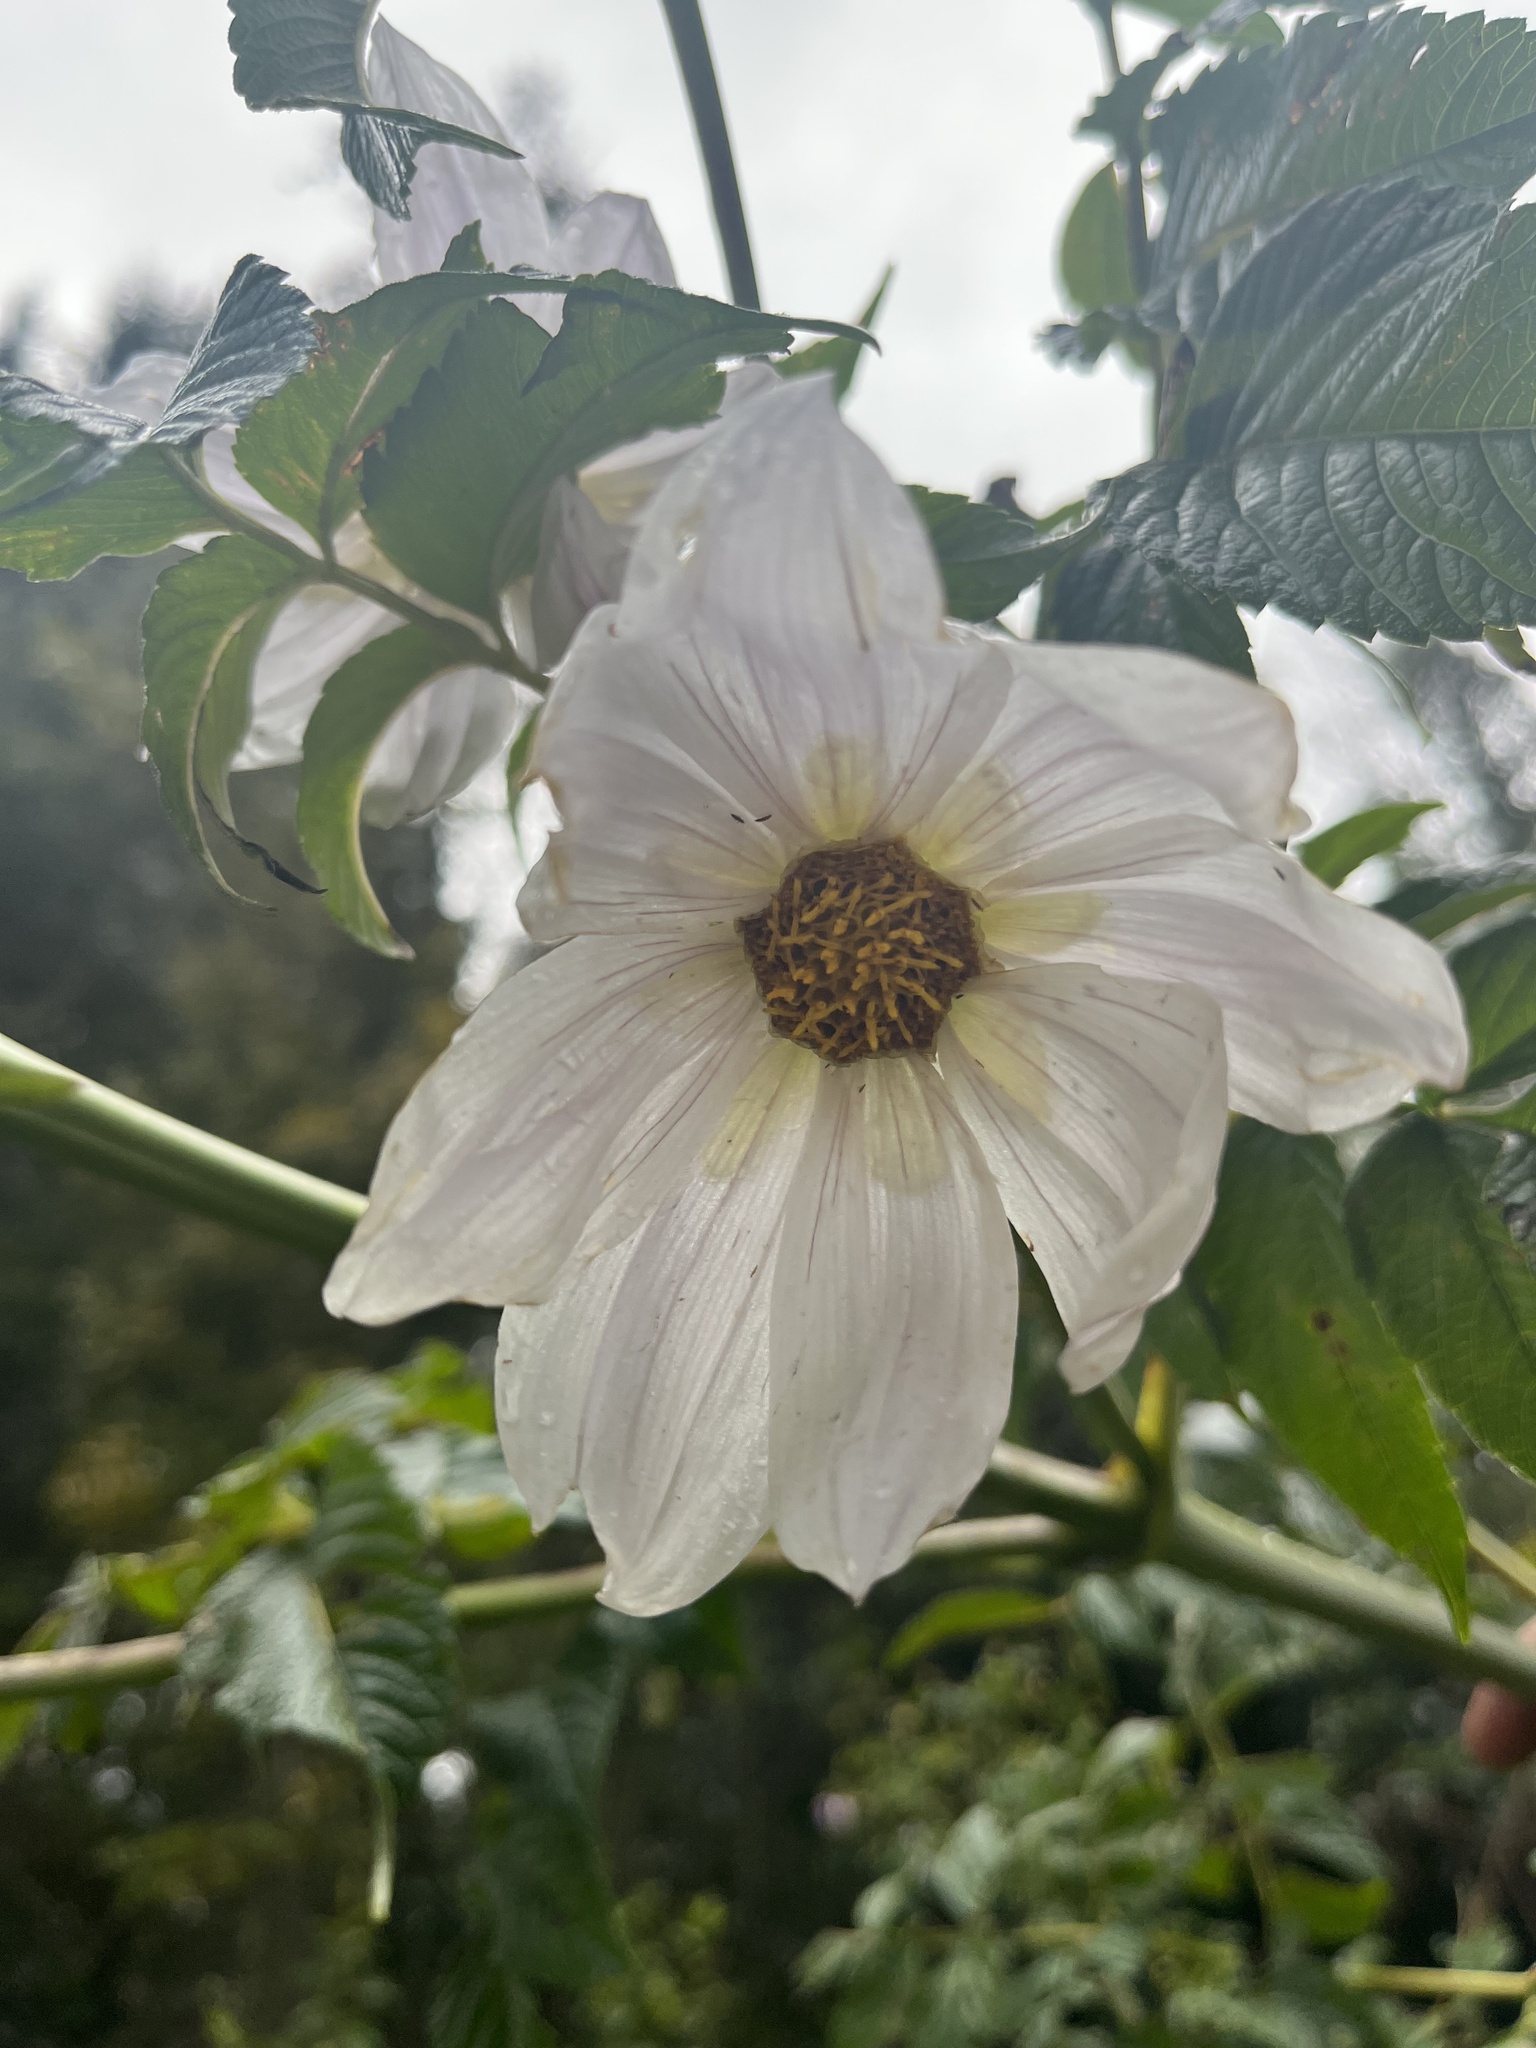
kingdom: Plantae
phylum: Tracheophyta
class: Magnoliopsida
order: Asterales
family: Asteraceae
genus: Dahlia
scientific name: Dahlia imperialis
